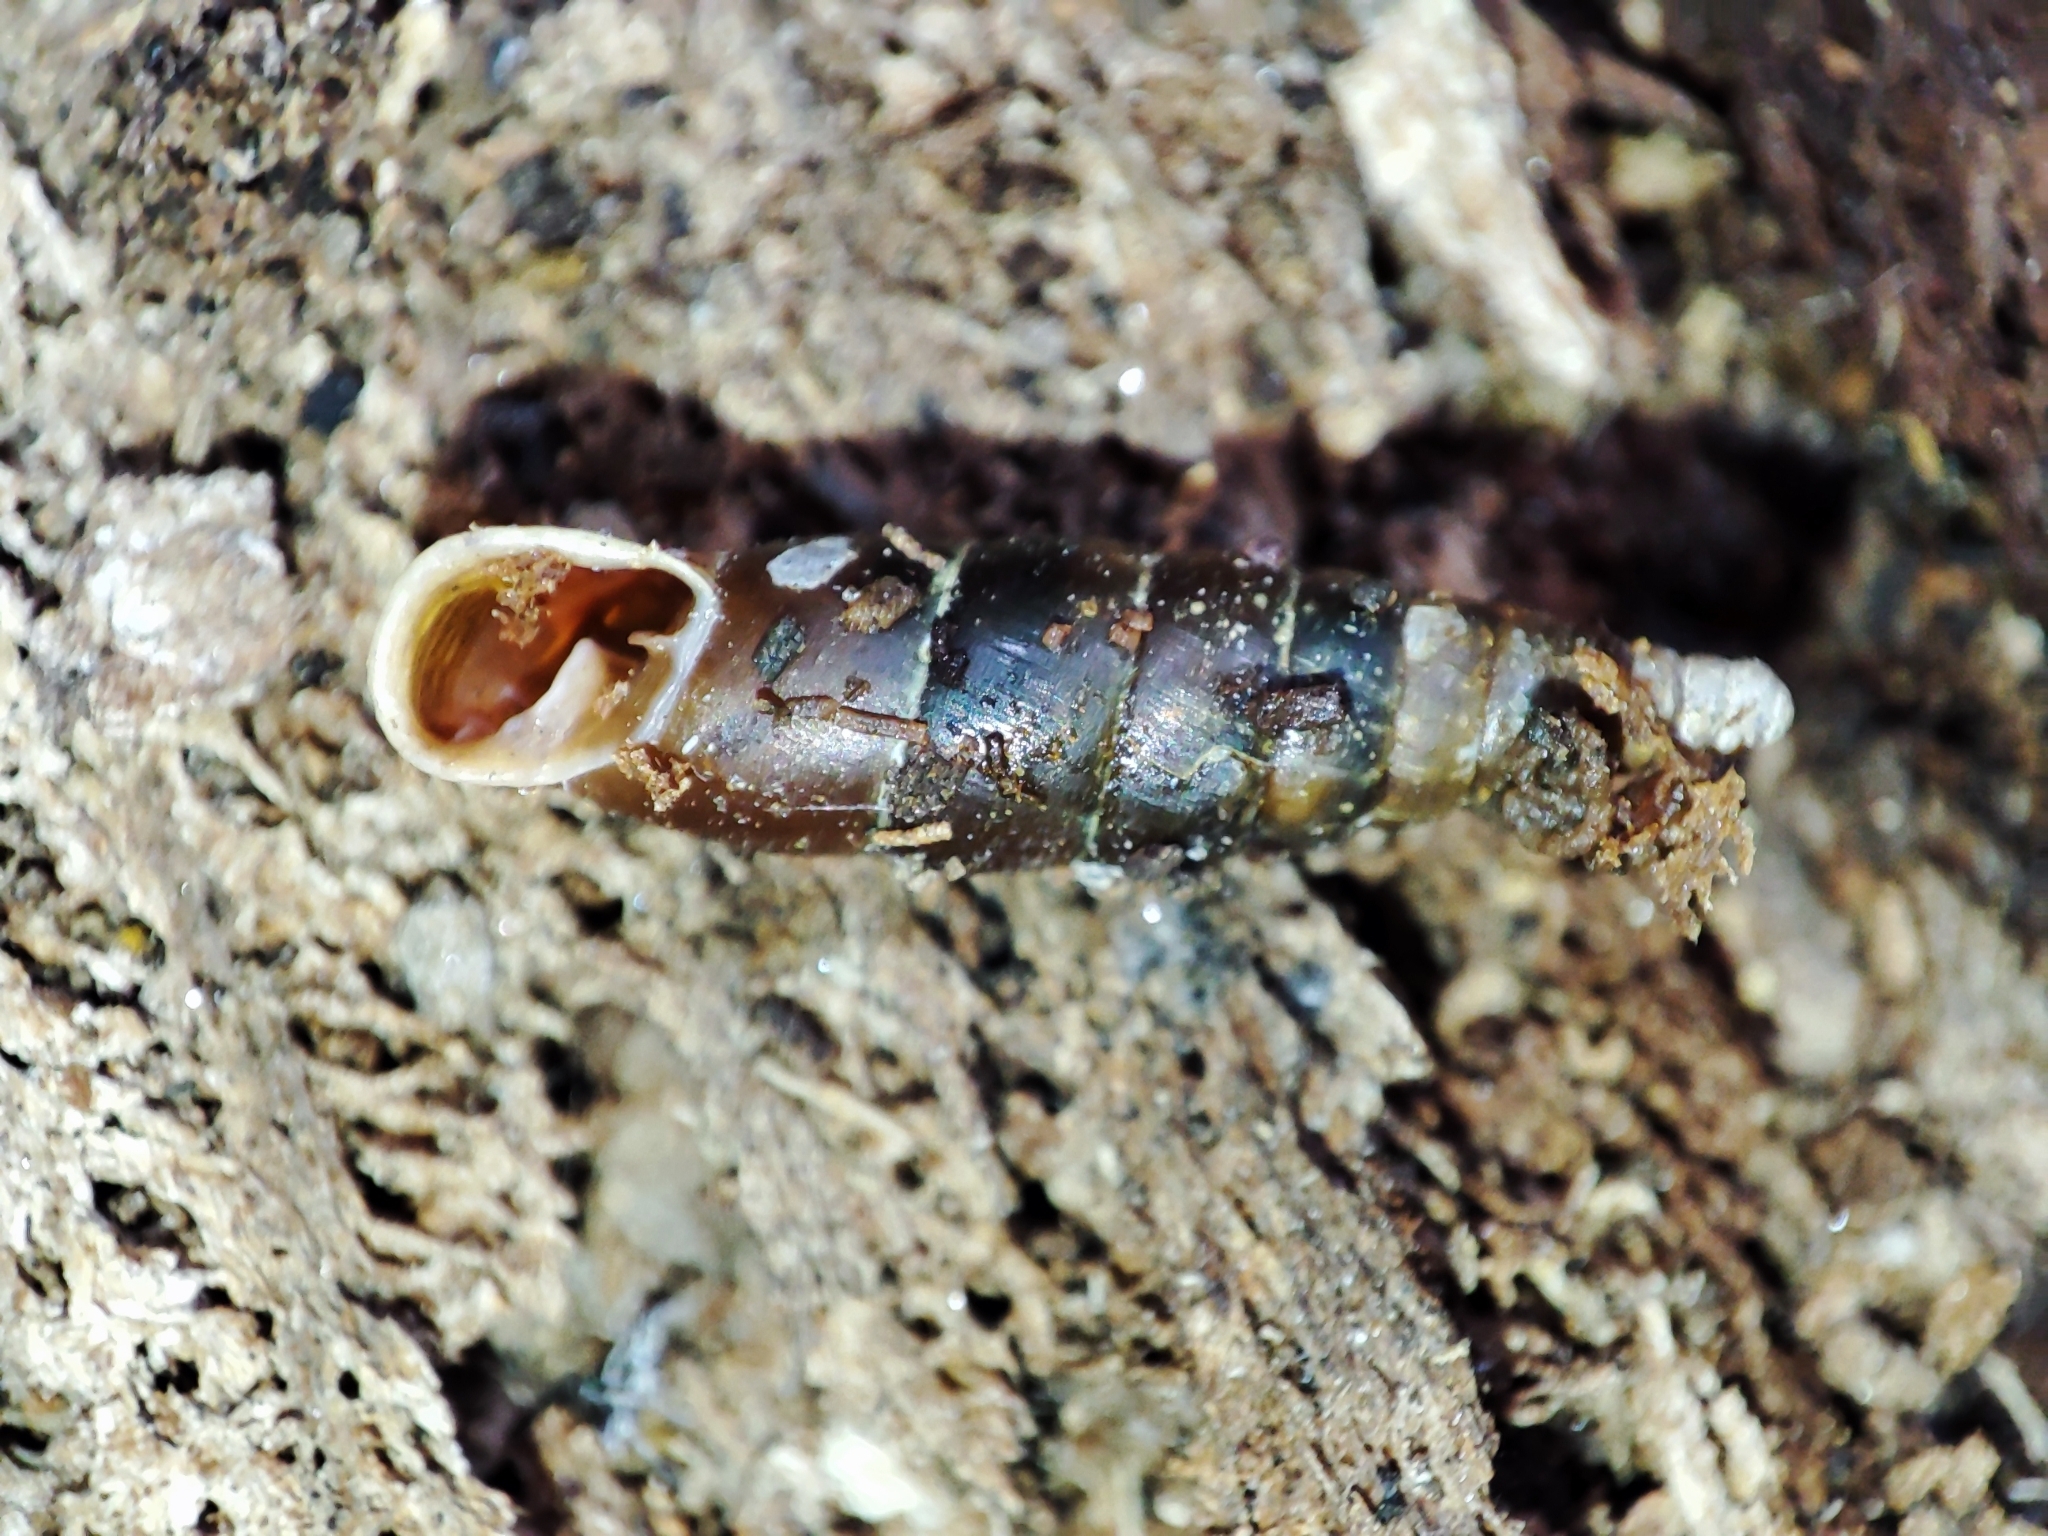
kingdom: Animalia
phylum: Mollusca
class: Gastropoda
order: Stylommatophora
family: Clausiliidae
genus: Cochlodina
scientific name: Cochlodina laminata
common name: Plaited door snail
